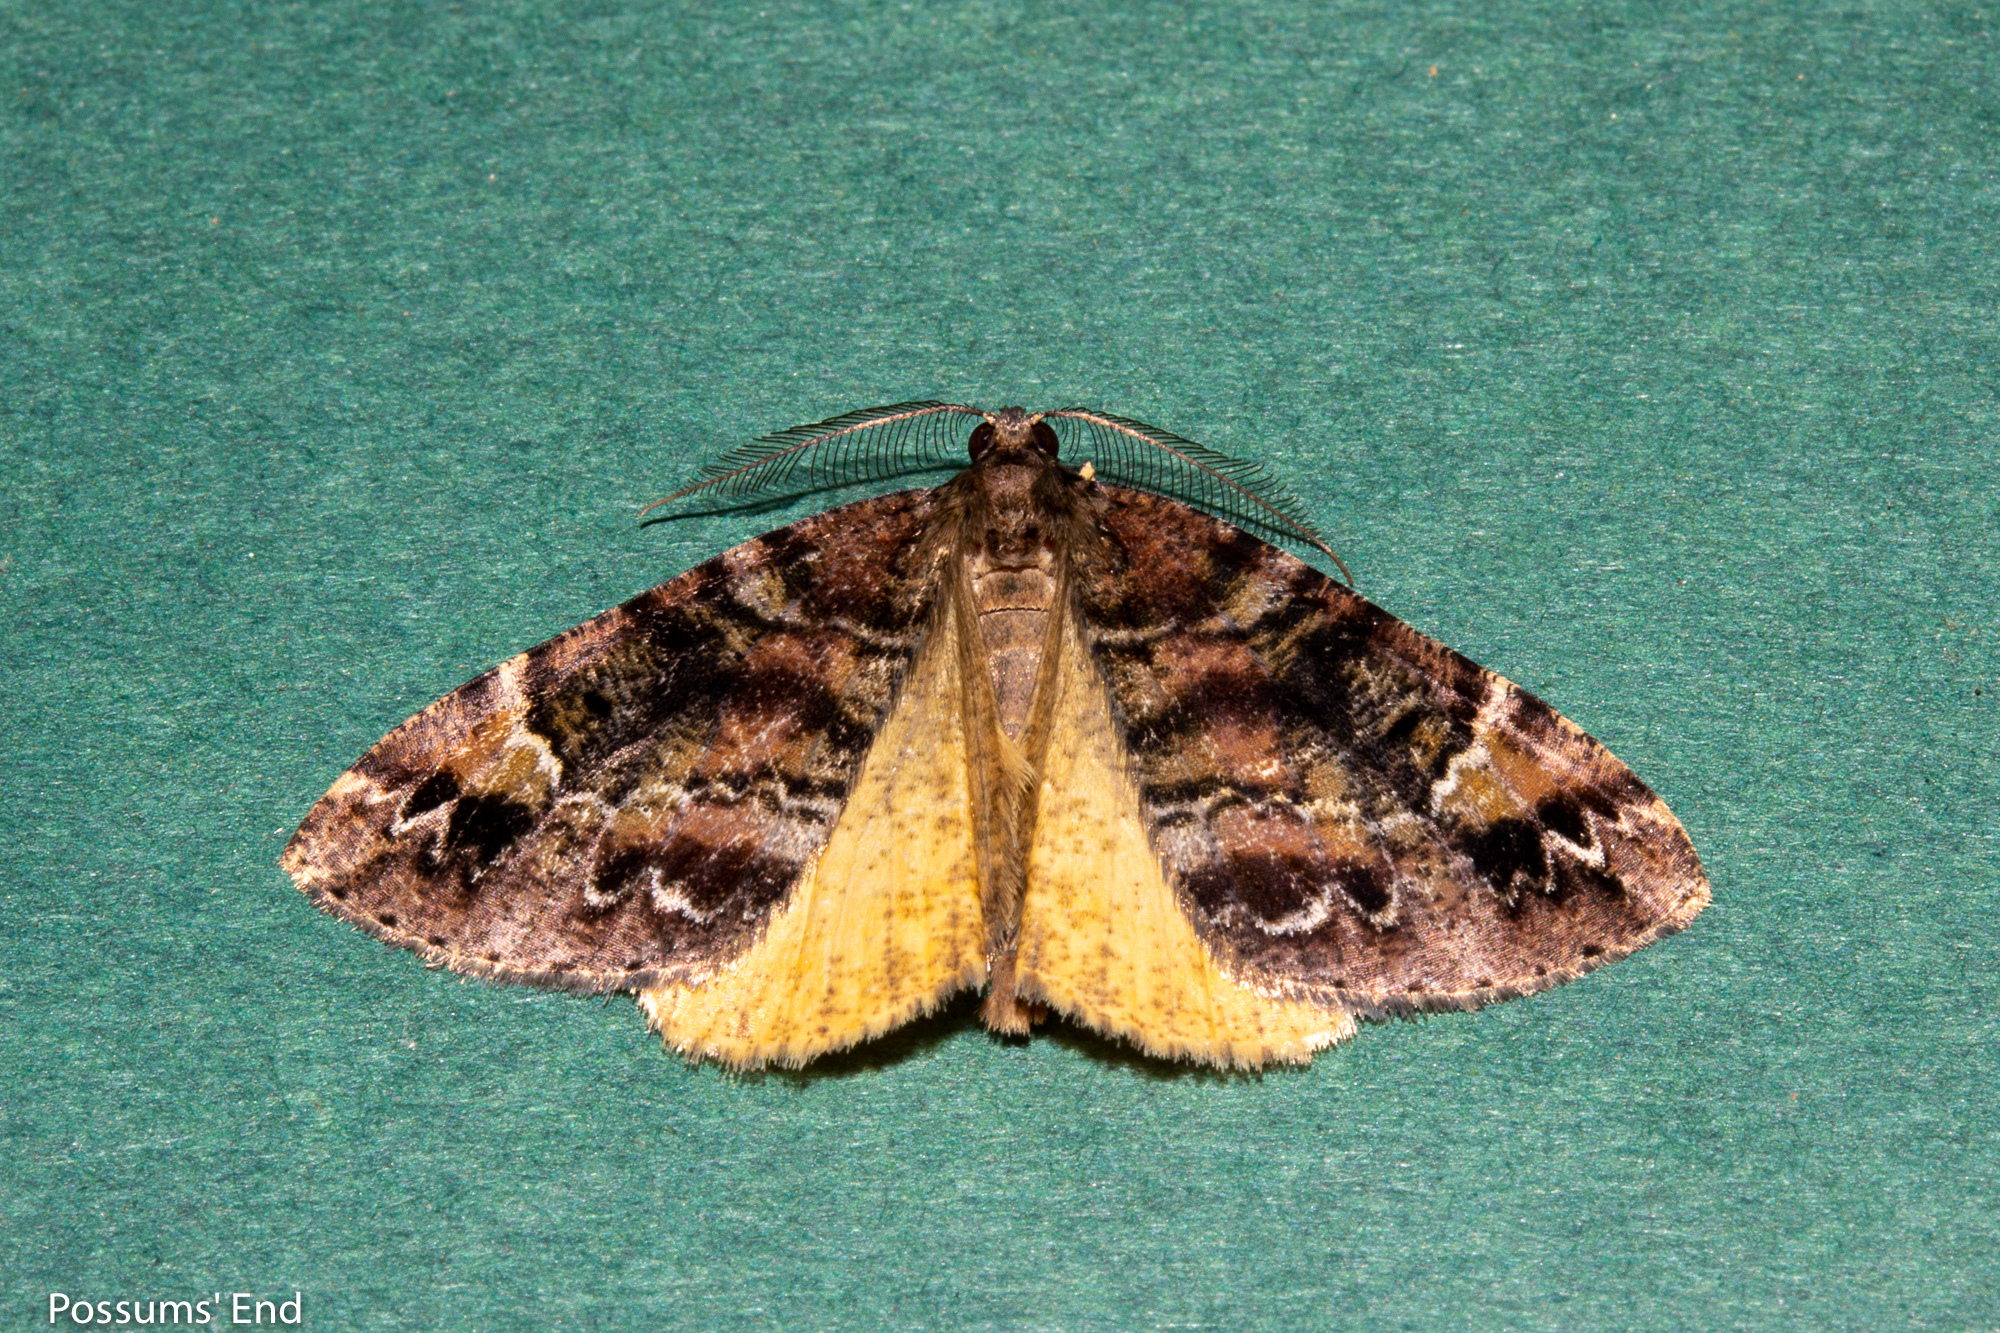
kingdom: Animalia
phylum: Arthropoda
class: Insecta
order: Lepidoptera
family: Geometridae
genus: Pseudocoremia
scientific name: Pseudocoremia productata
